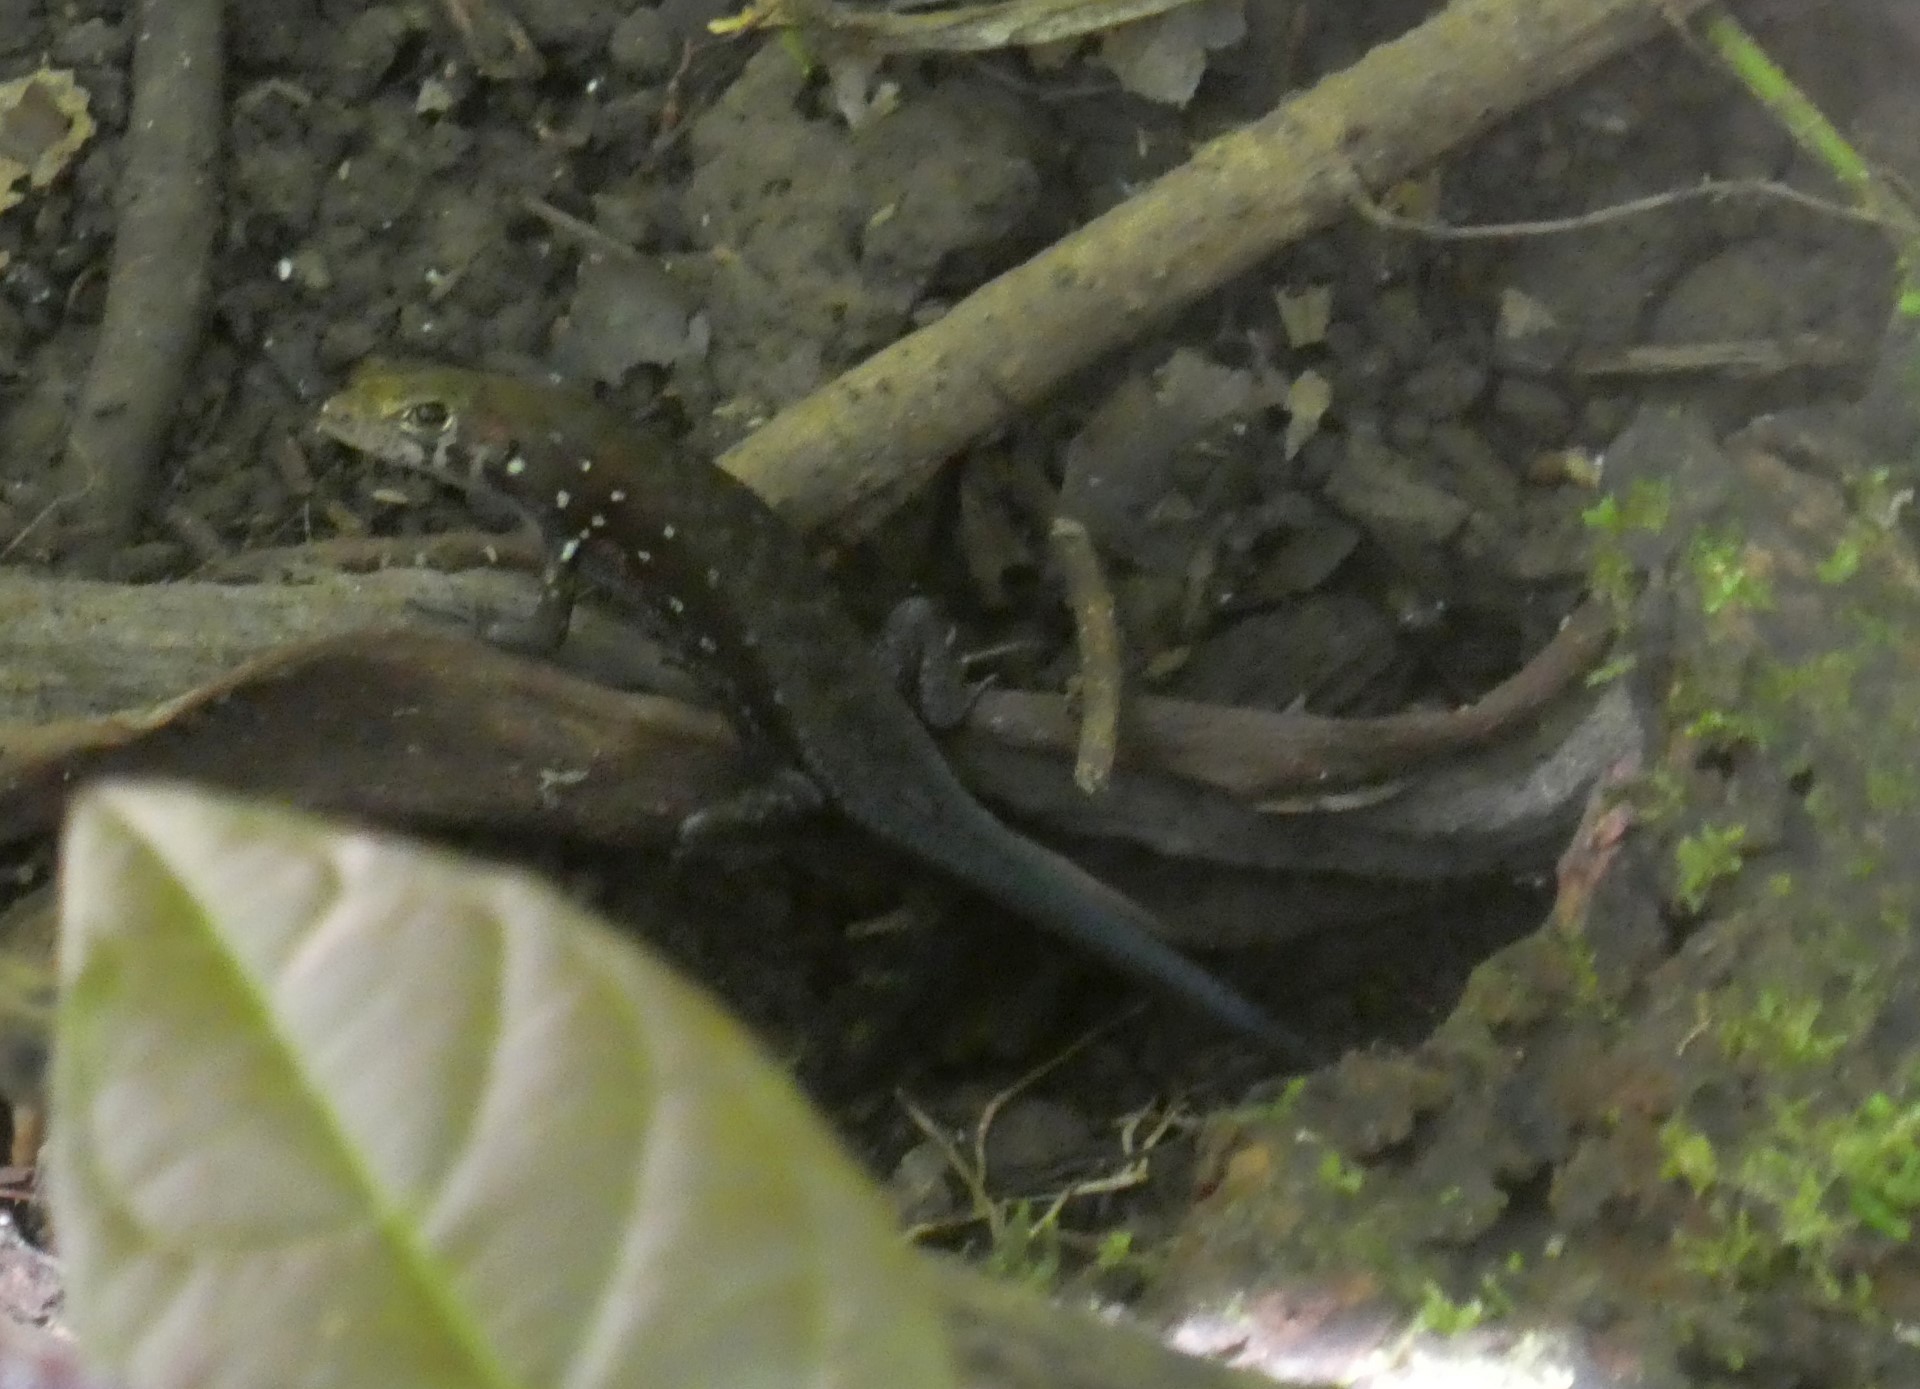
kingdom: Animalia
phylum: Chordata
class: Squamata
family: Scincidae
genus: Emoia
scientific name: Emoia physicae
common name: Slender skink
